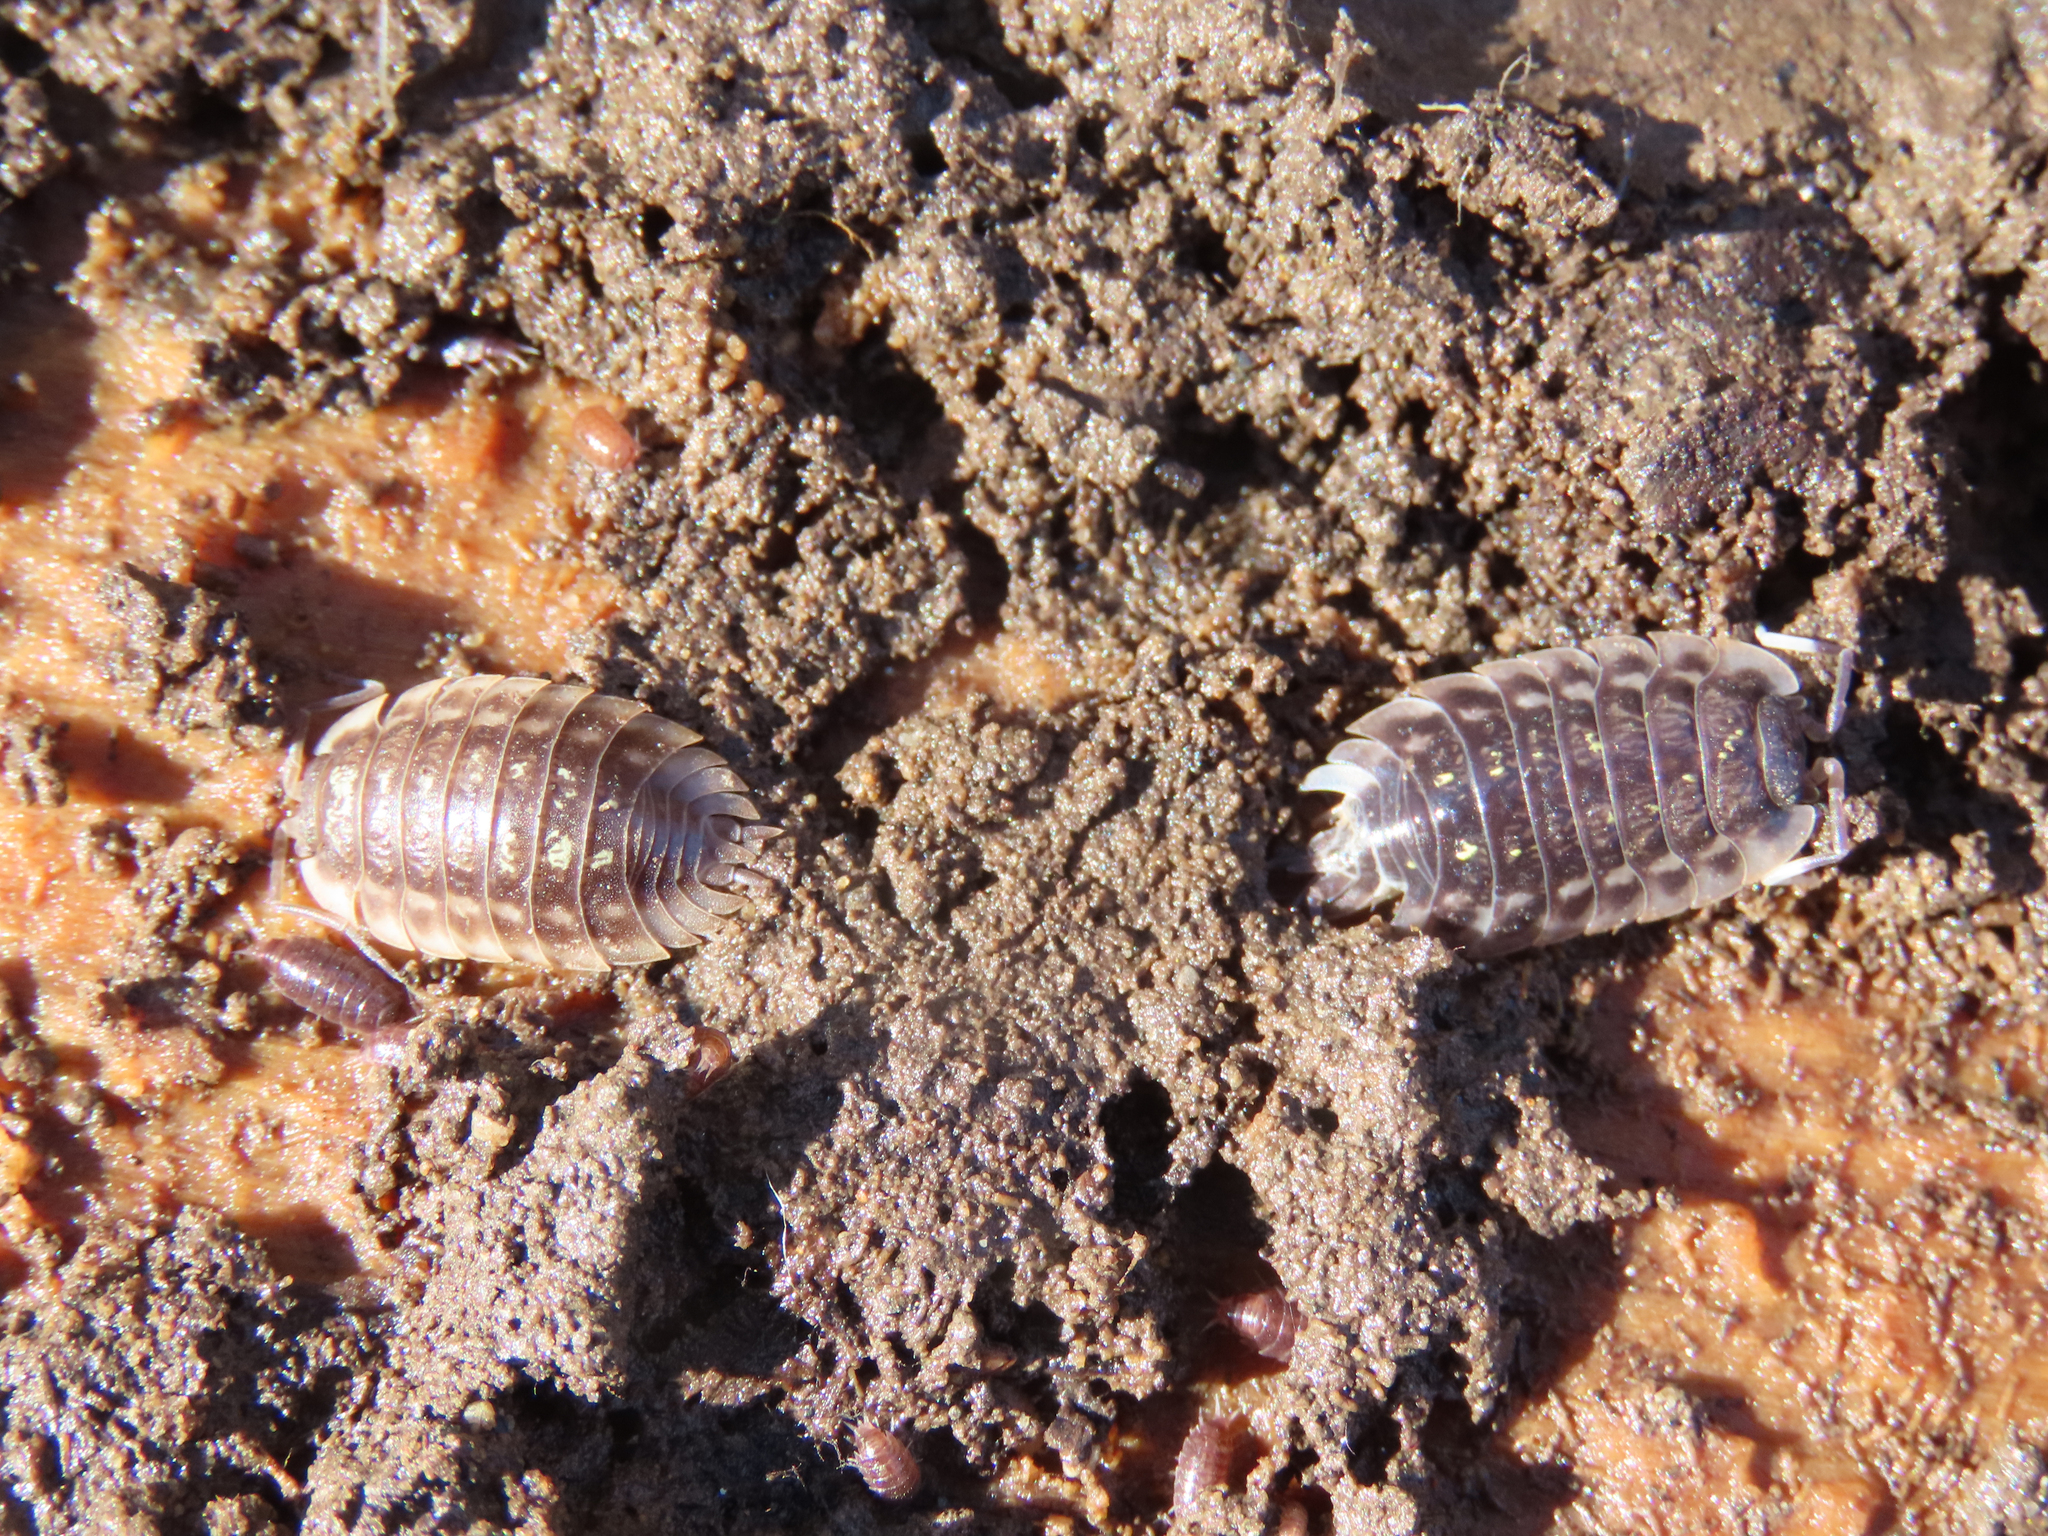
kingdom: Animalia
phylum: Arthropoda
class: Malacostraca
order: Isopoda
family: Oniscidae
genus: Oniscus
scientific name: Oniscus asellus
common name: Common shiny woodlouse
